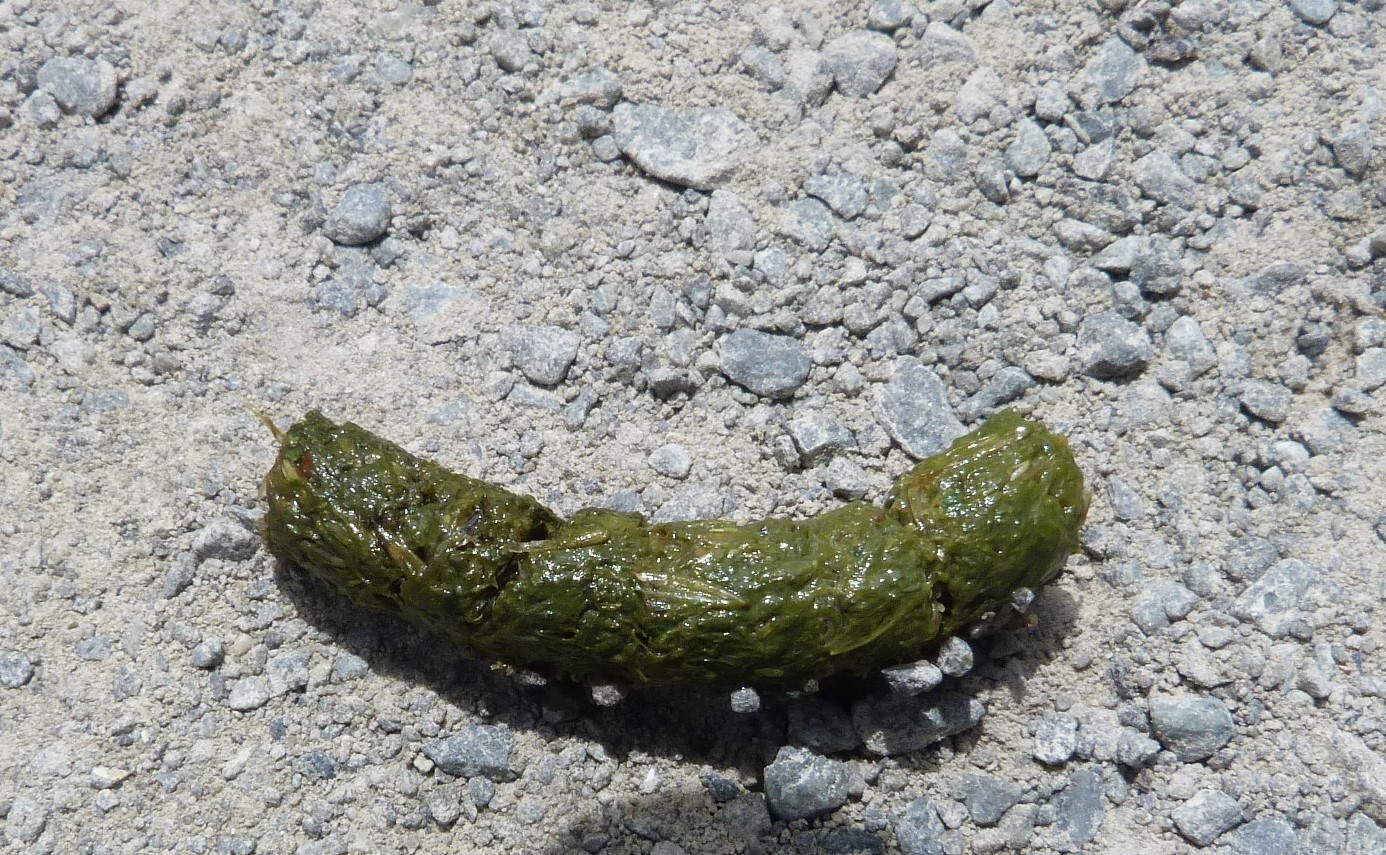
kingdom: Animalia
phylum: Chordata
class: Aves
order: Gruiformes
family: Rallidae
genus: Porphyrio
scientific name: Porphyrio melanotus
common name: Australasian swamphen
